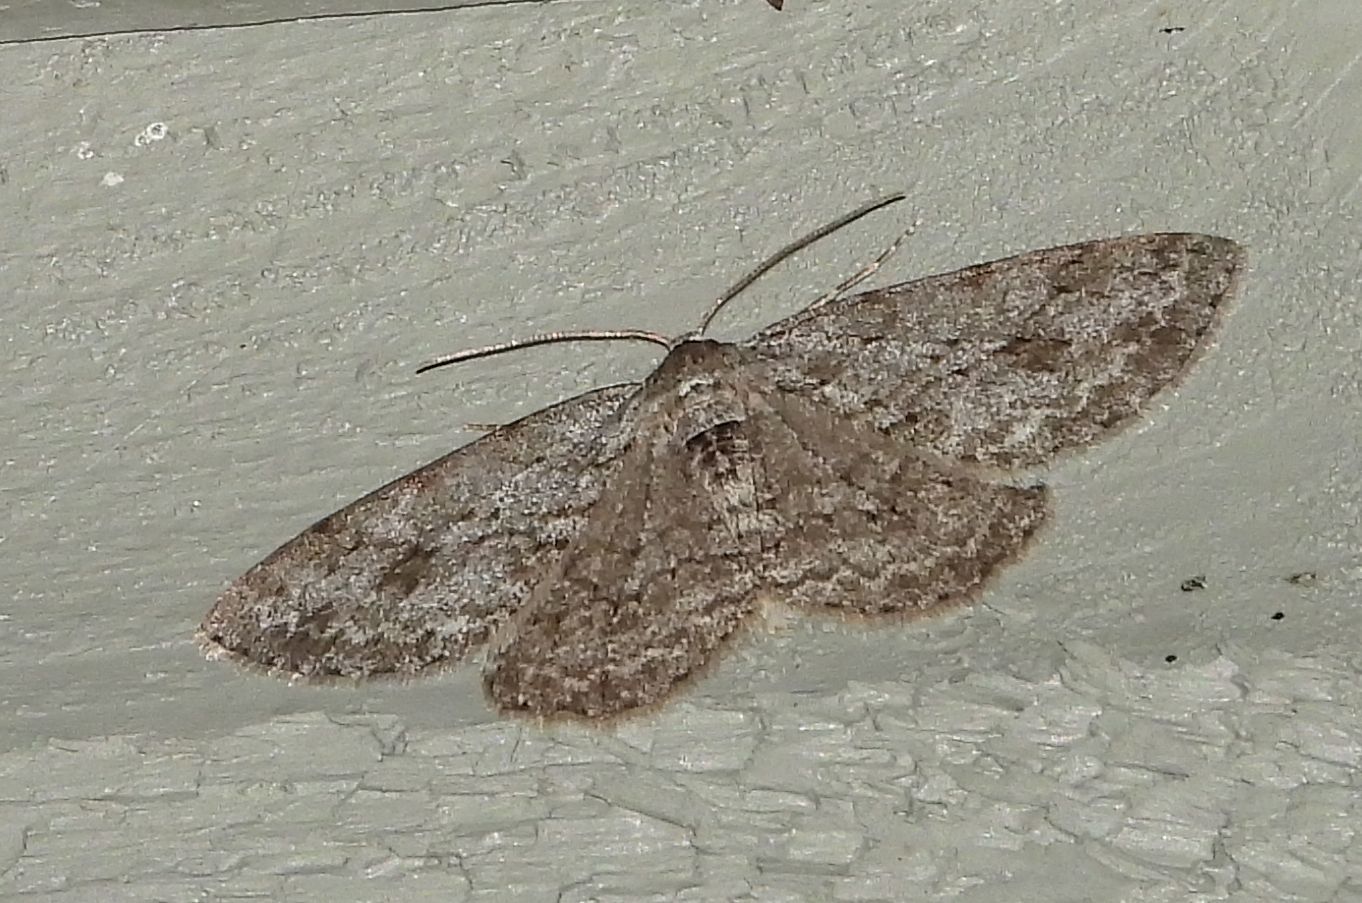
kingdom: Animalia
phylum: Arthropoda
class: Insecta
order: Lepidoptera
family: Geometridae
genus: Ectropis
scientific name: Ectropis crepuscularia
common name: Engrailed
